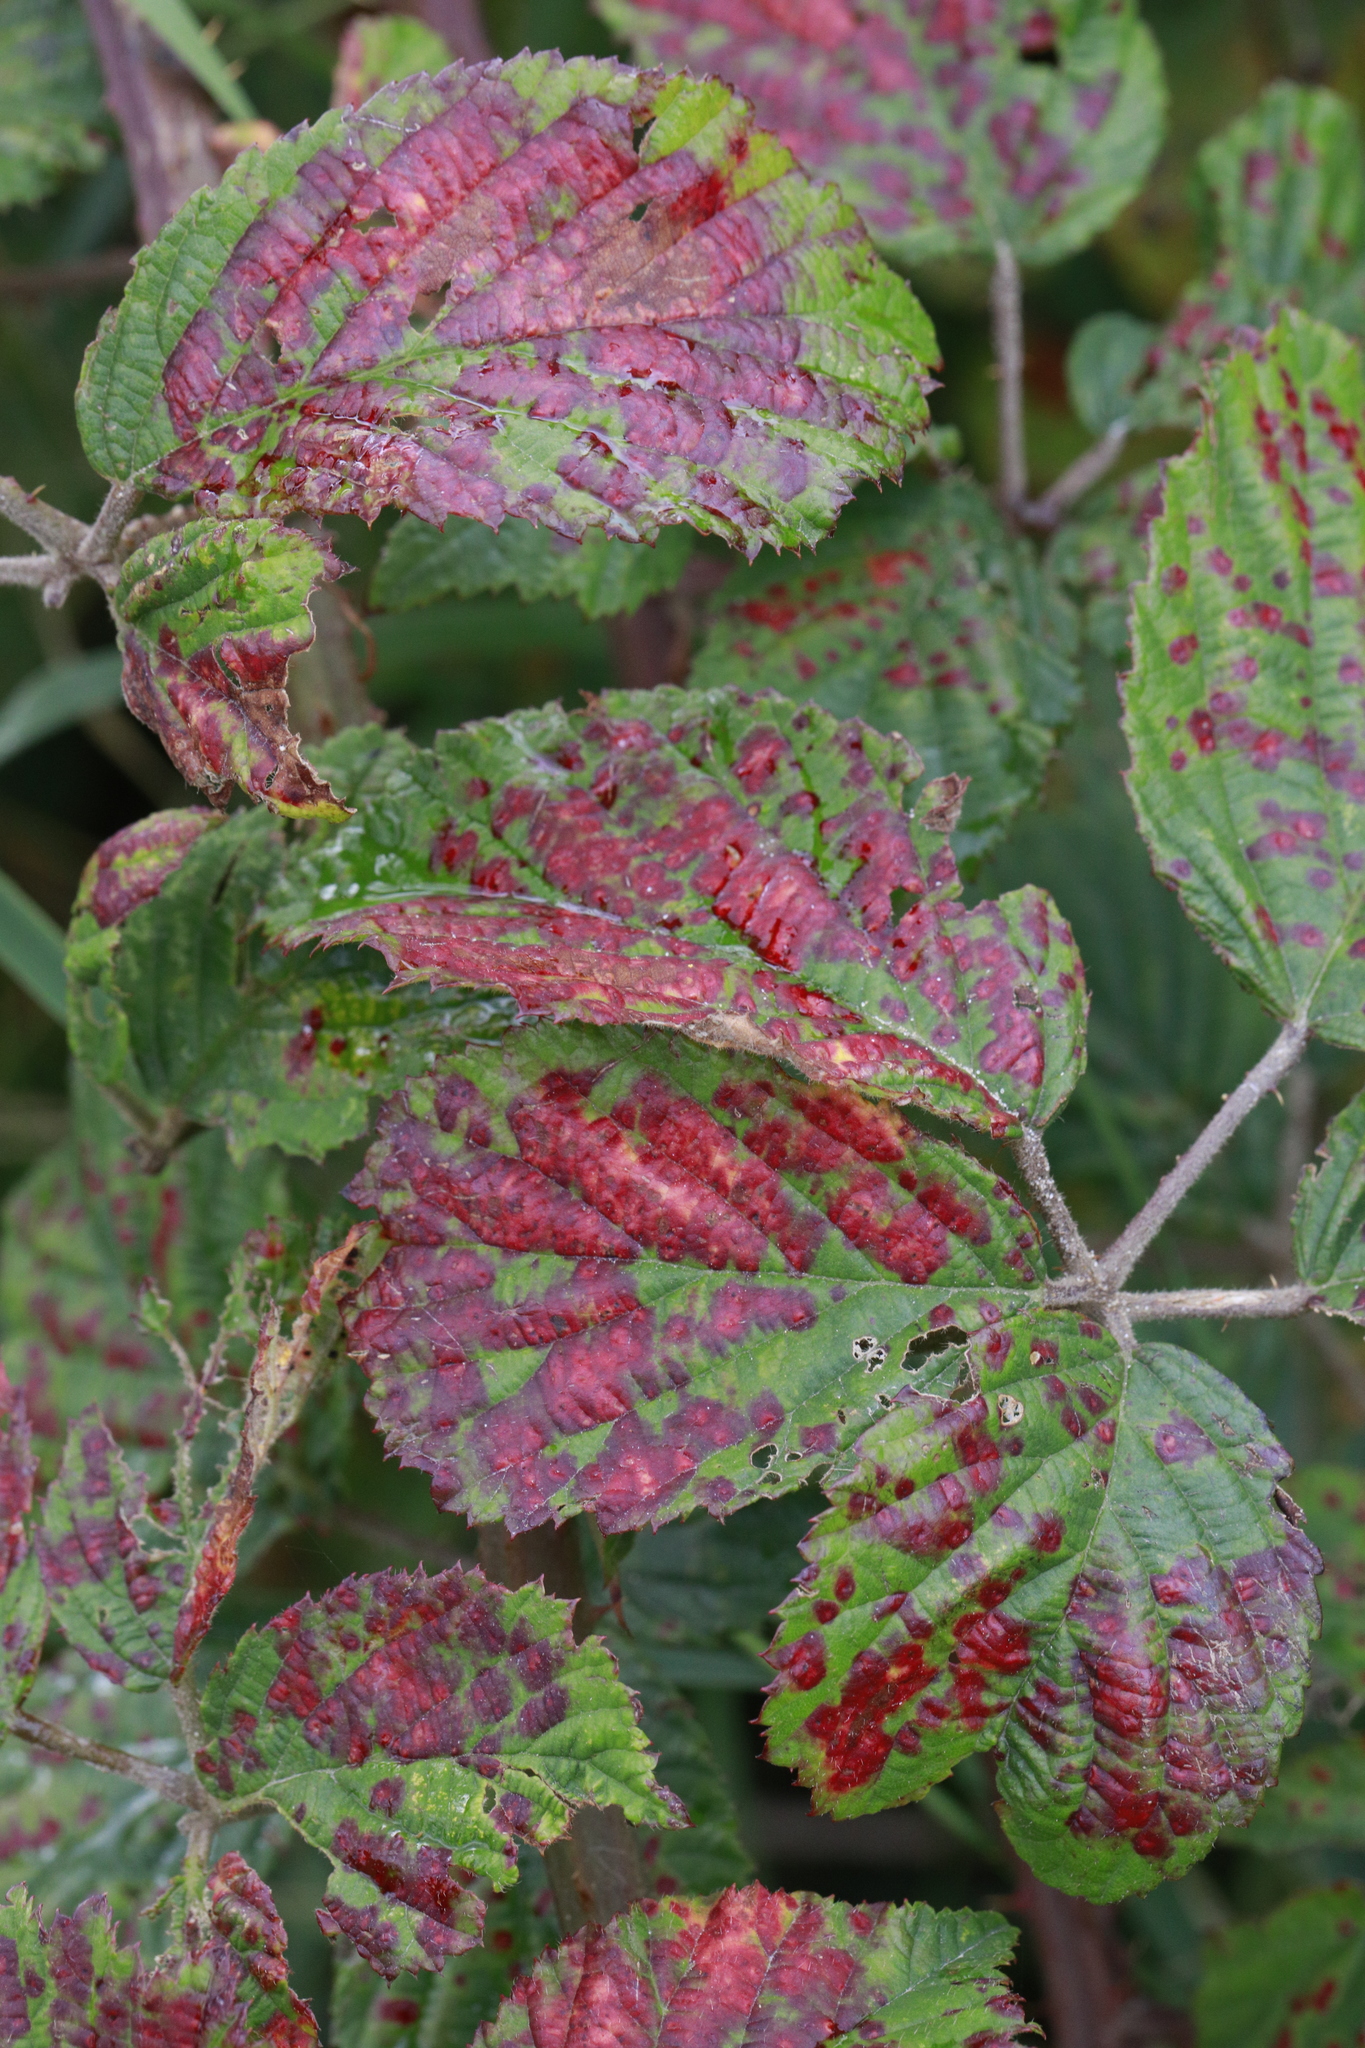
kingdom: Fungi
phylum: Basidiomycota
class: Pucciniomycetes
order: Pucciniales
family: Phragmidiaceae
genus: Phragmidium
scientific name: Phragmidium violaceum
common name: Violet bramble rust
